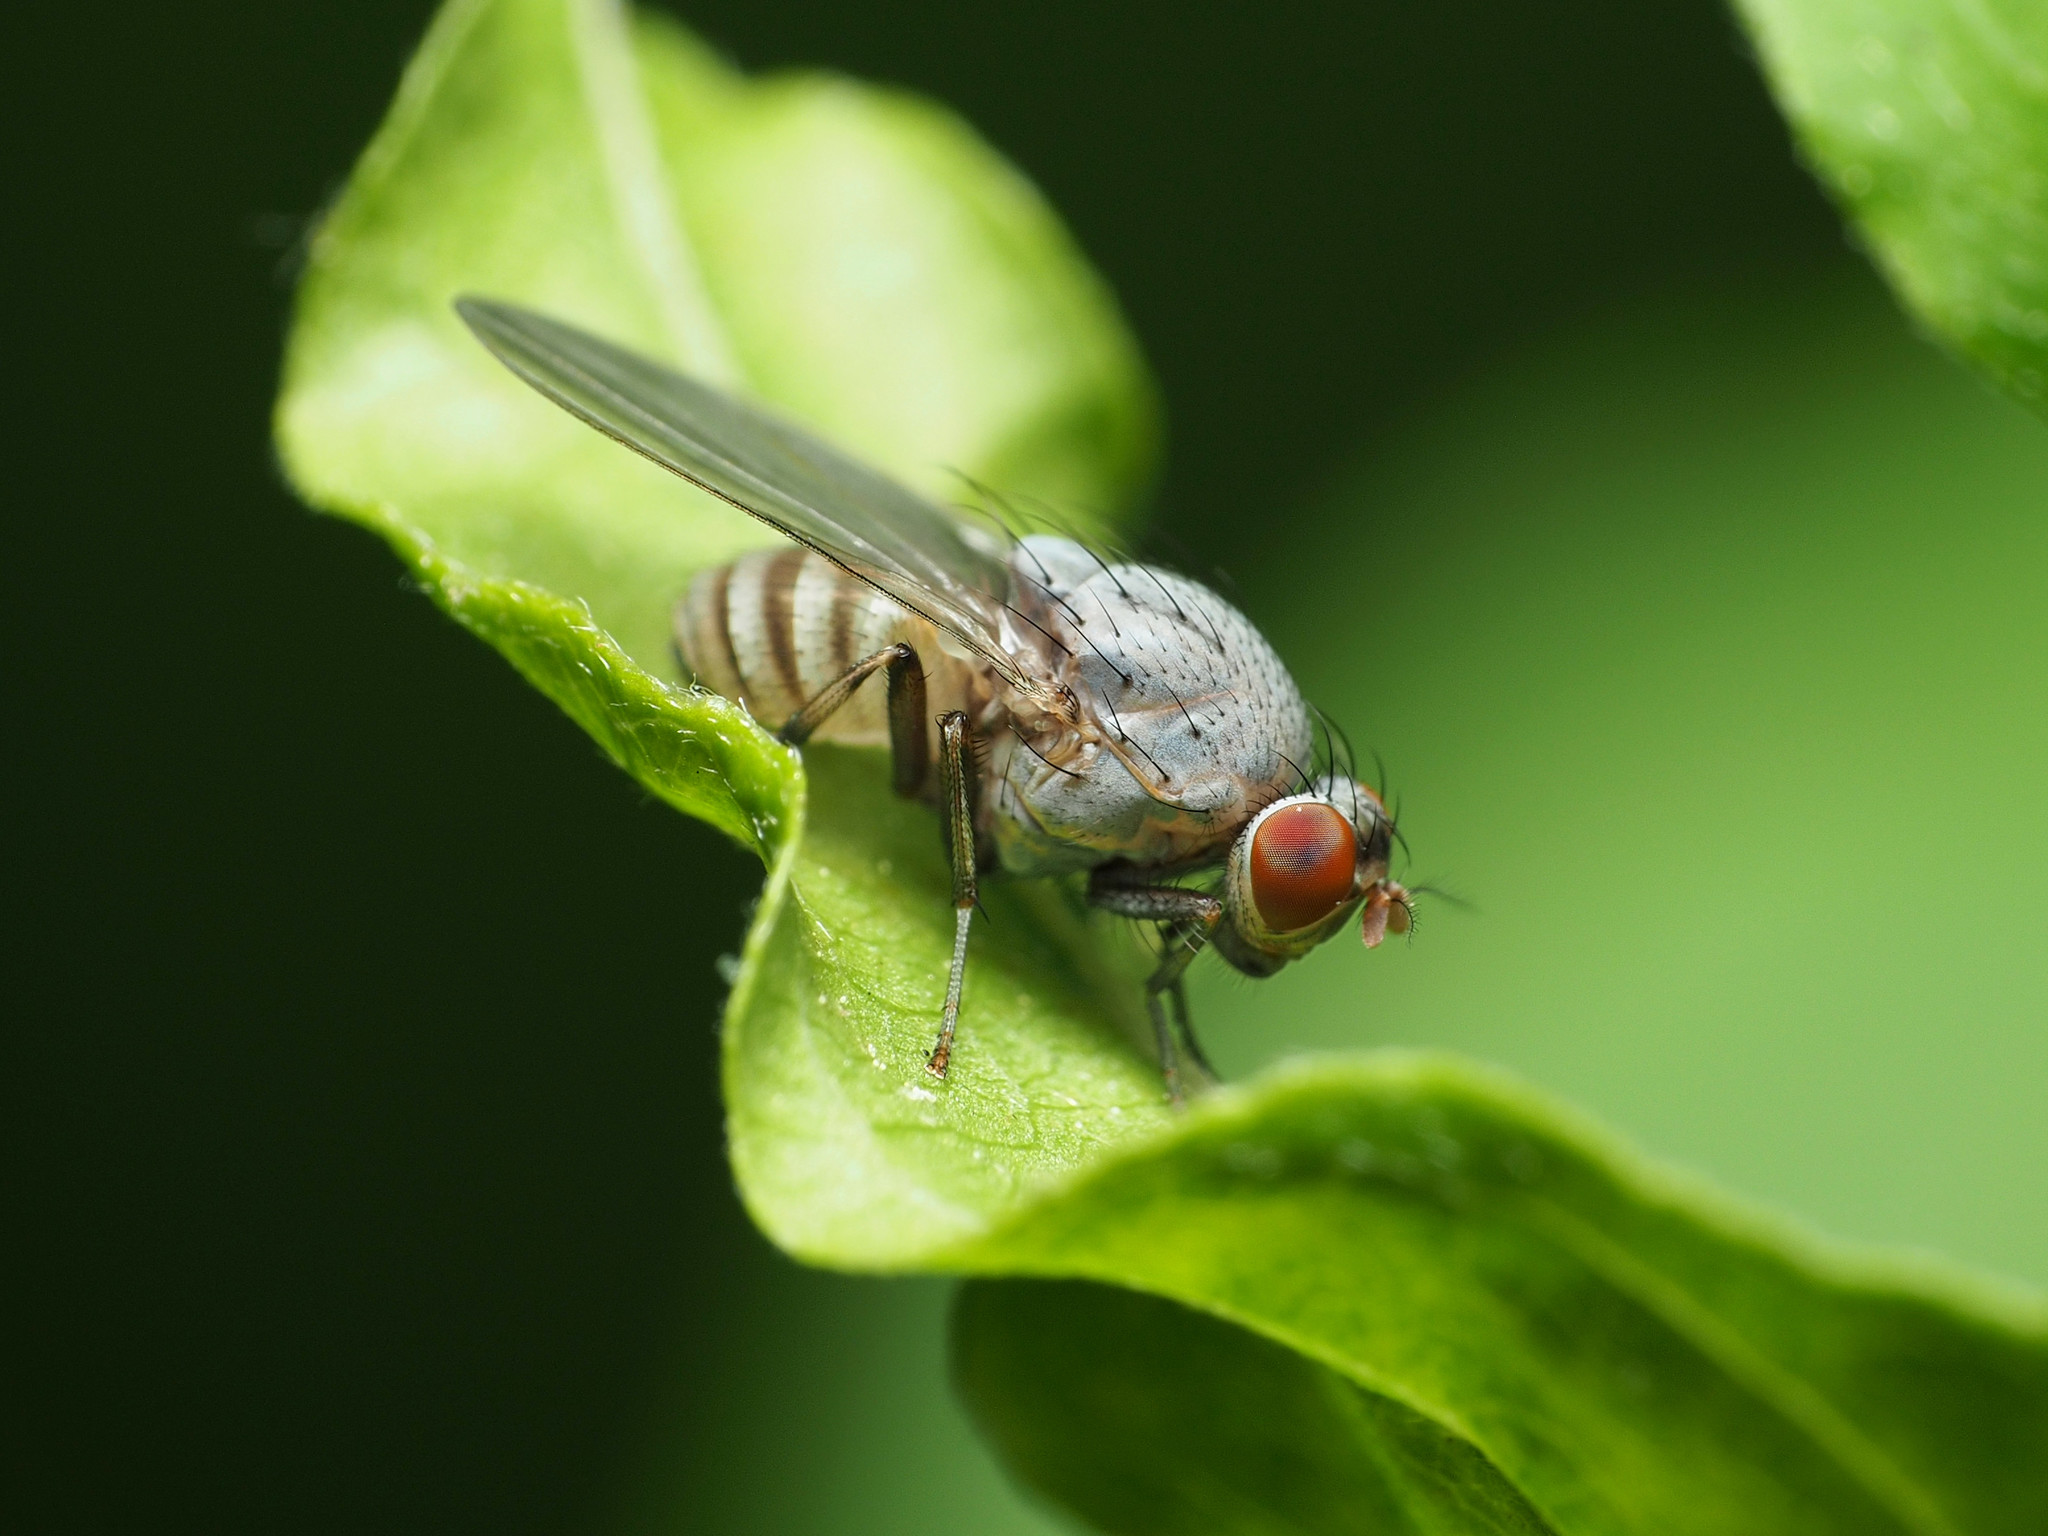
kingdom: Animalia
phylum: Arthropoda
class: Insecta
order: Diptera
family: Lauxaniidae
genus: Minettia
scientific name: Minettia magna
